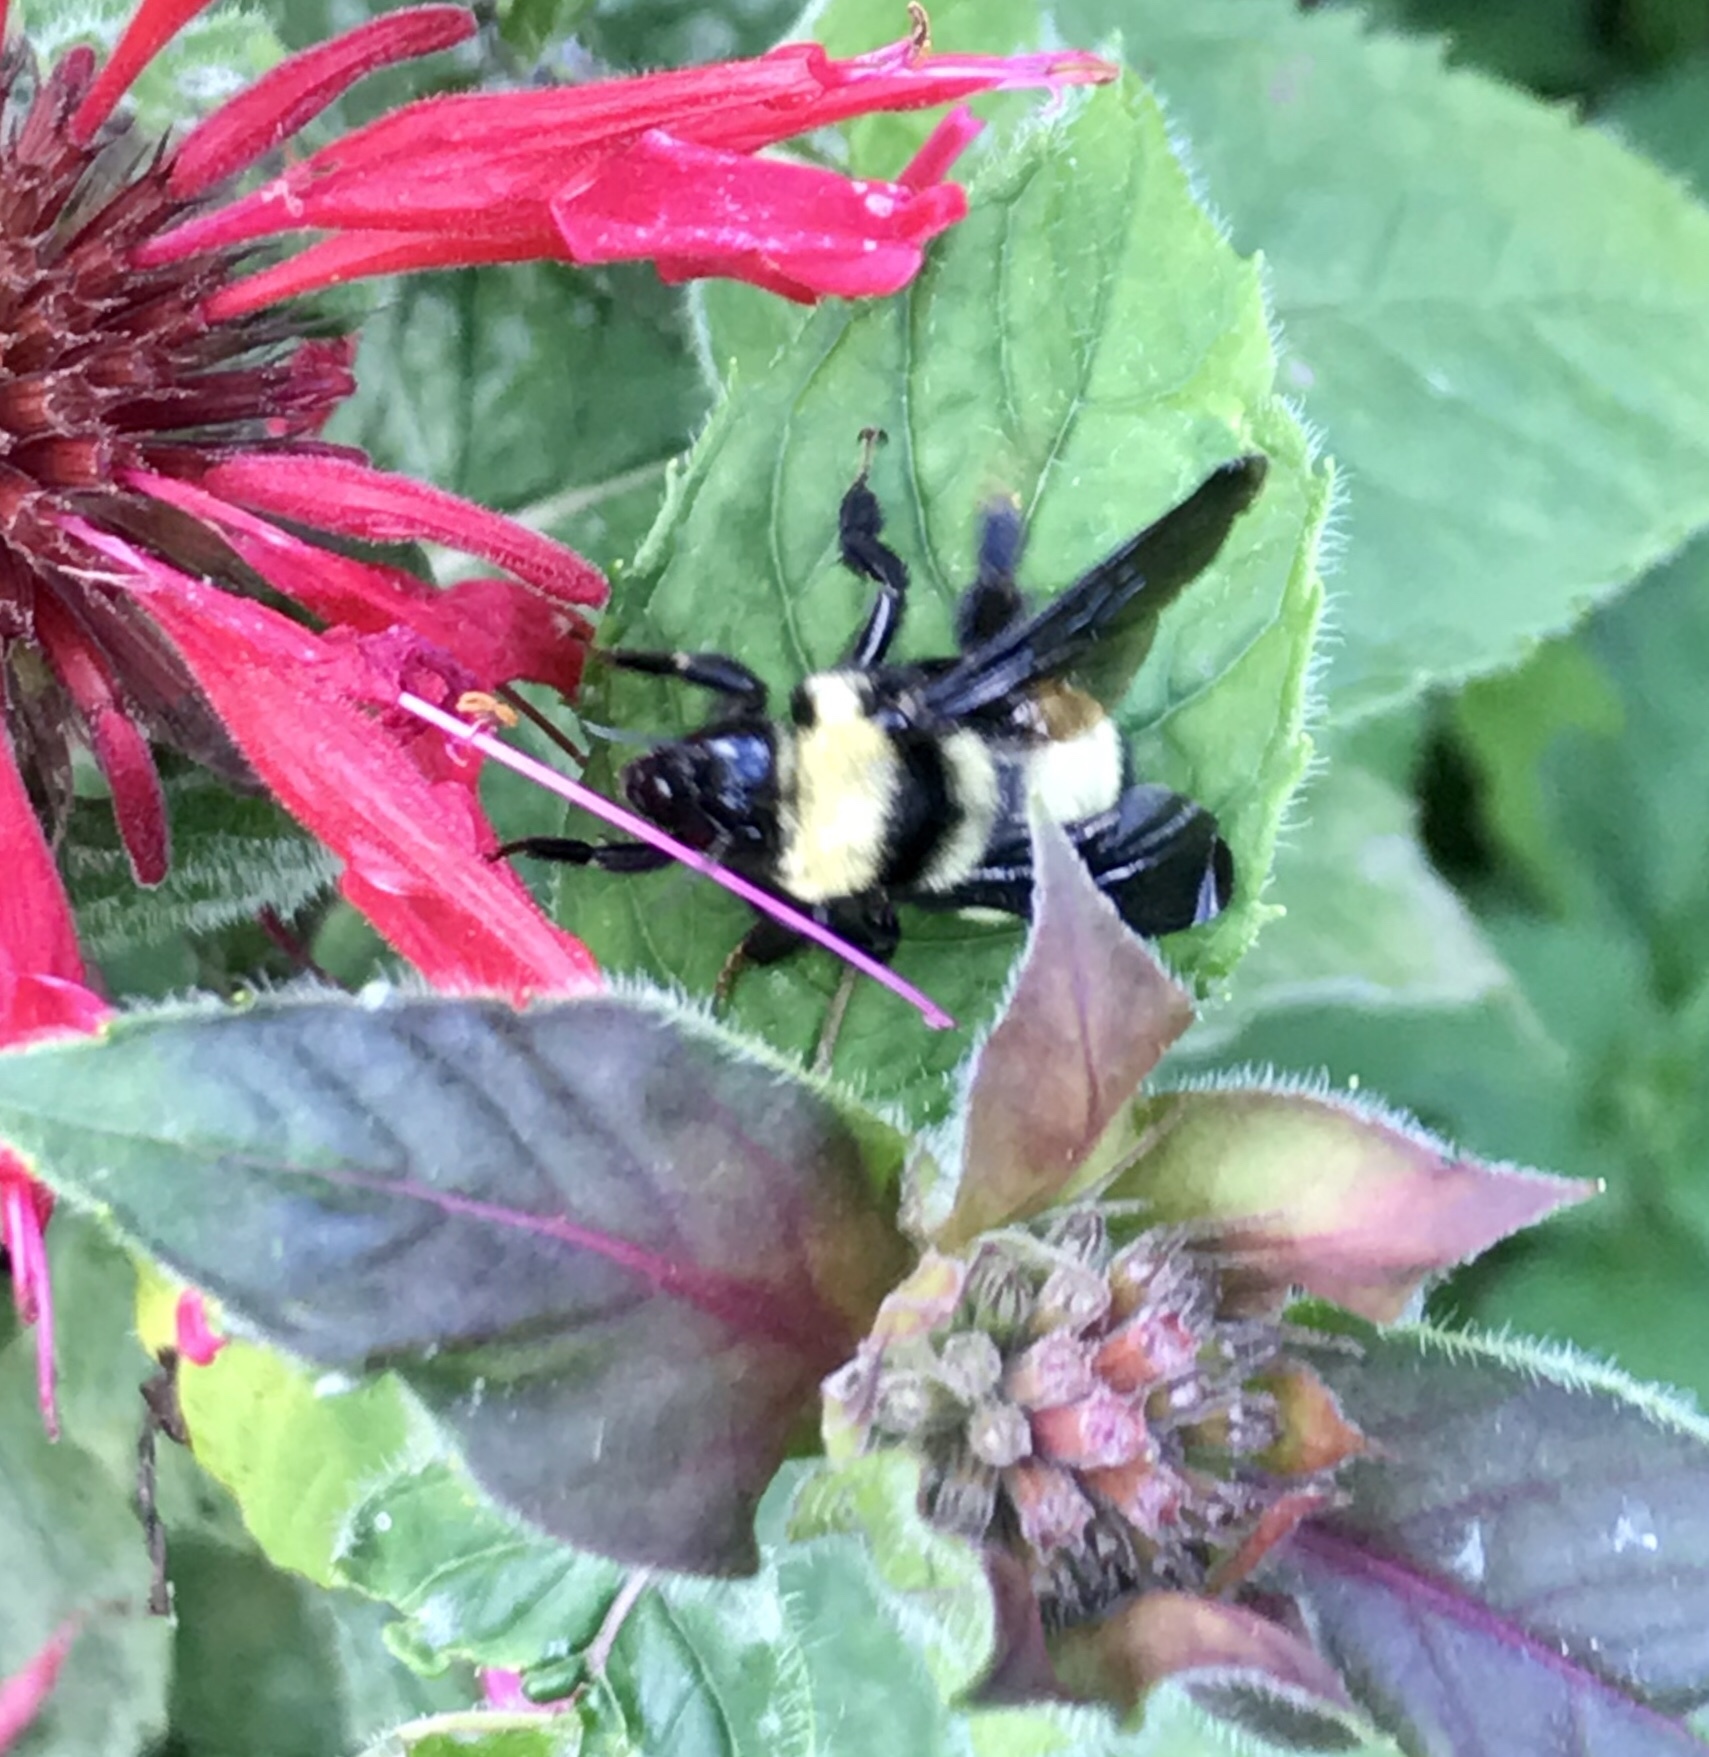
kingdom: Animalia
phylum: Arthropoda
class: Insecta
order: Hymenoptera
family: Apidae
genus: Bombus
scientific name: Bombus auricomus
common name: Black and gold bumble bee
